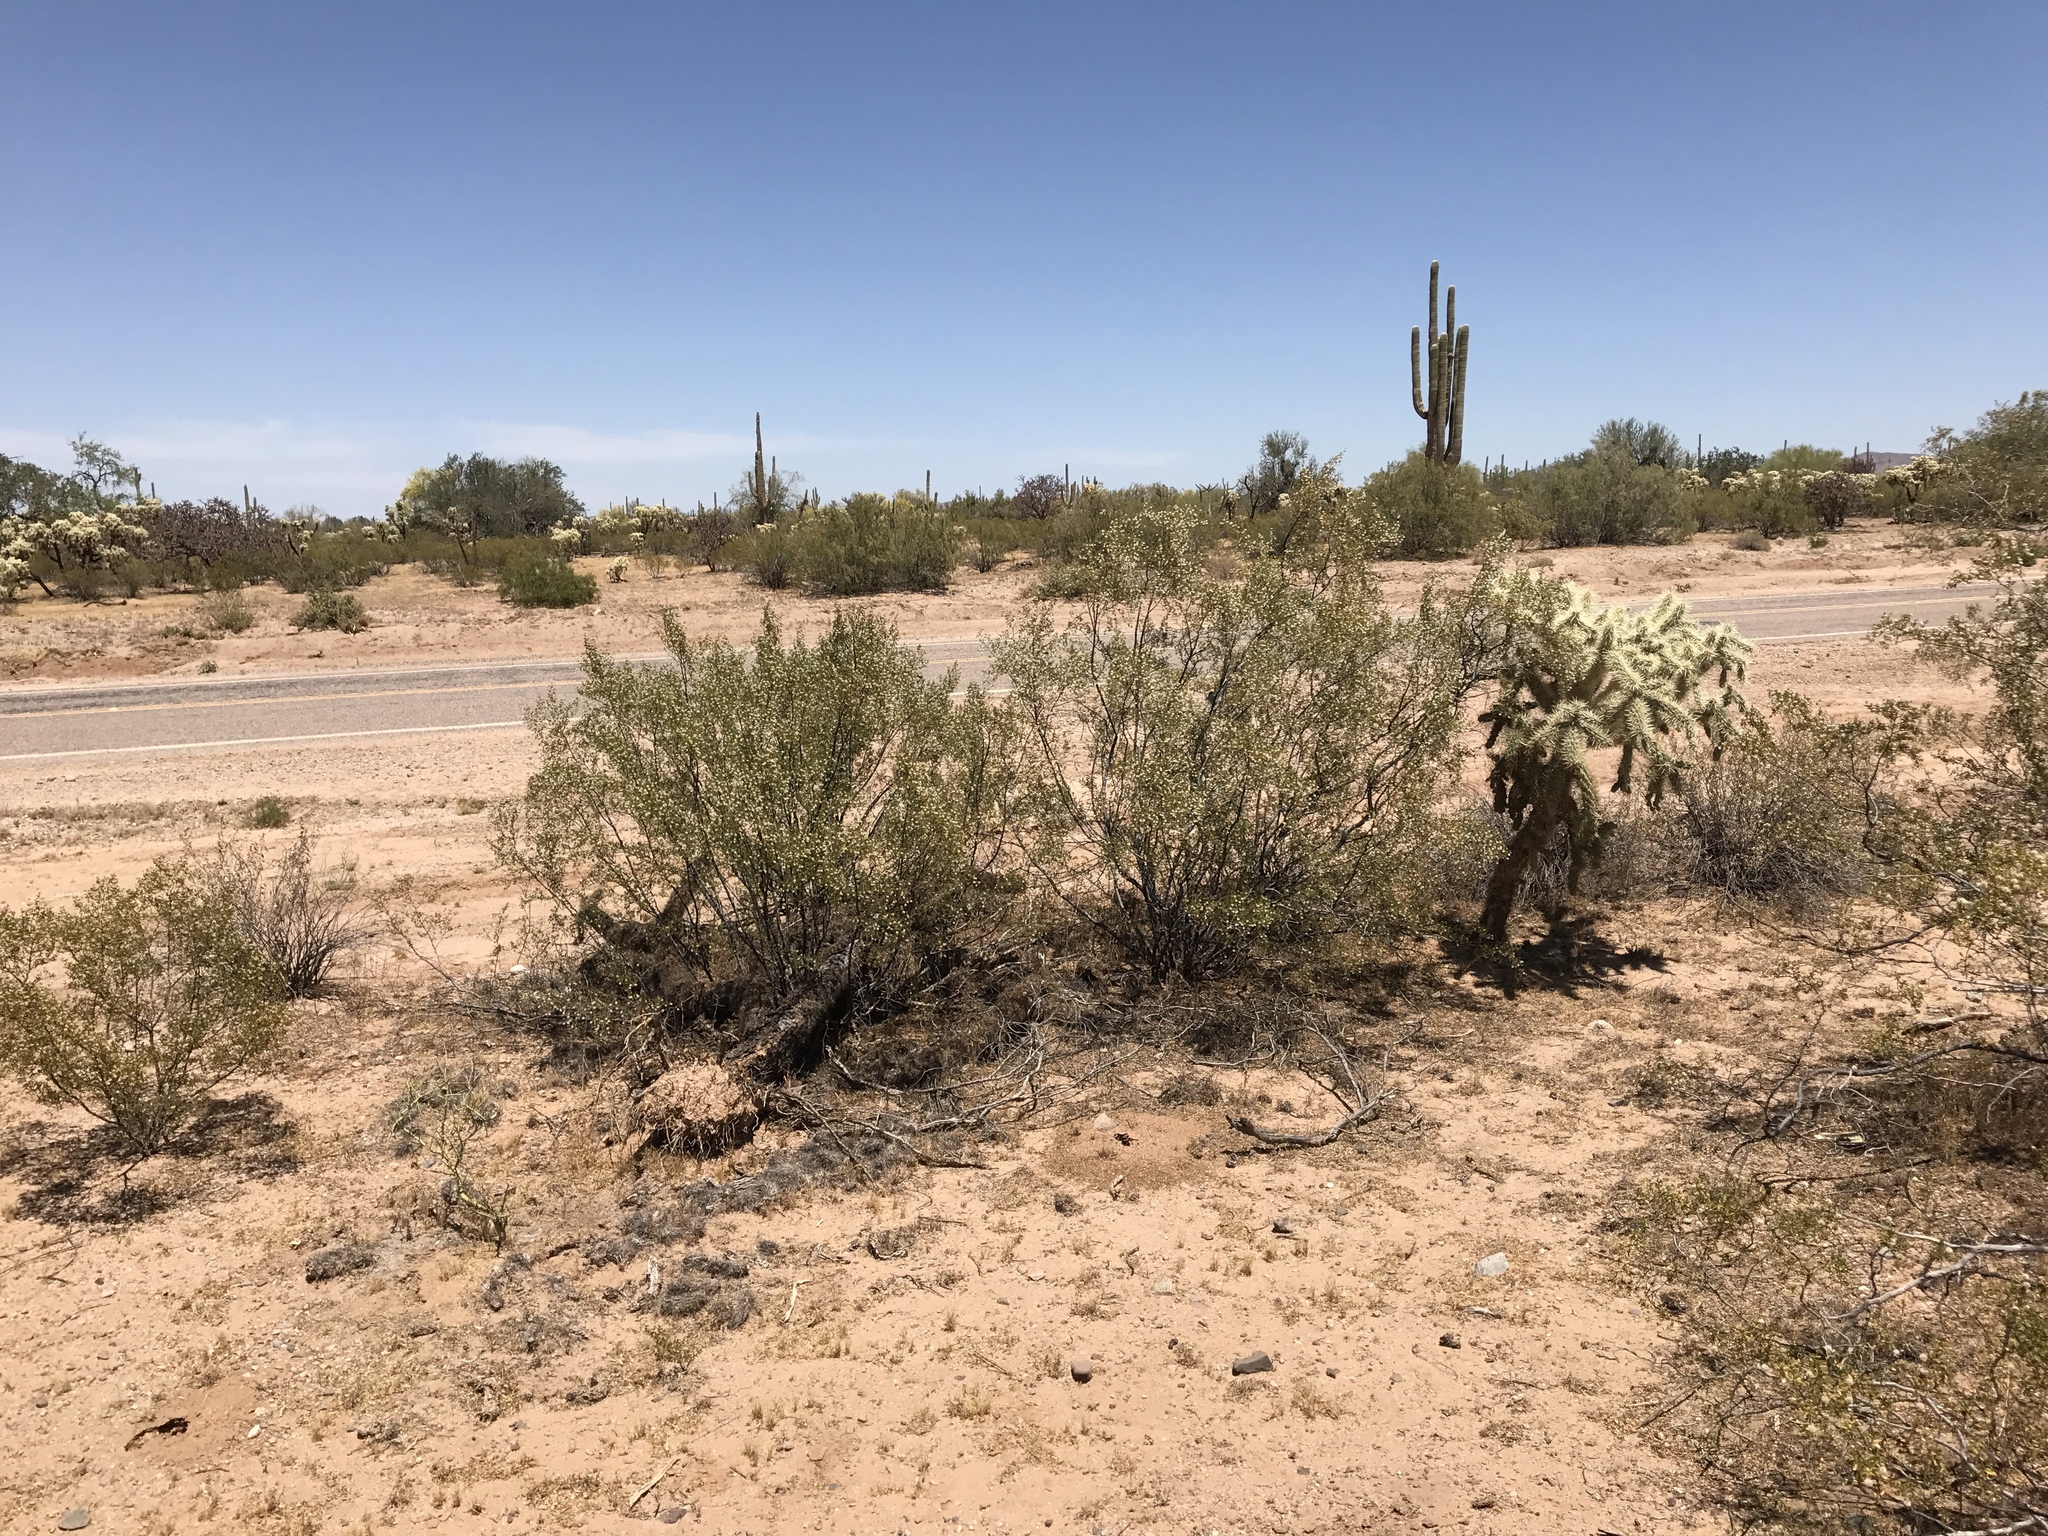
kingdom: Plantae
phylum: Tracheophyta
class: Magnoliopsida
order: Zygophyllales
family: Zygophyllaceae
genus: Larrea
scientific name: Larrea tridentata
